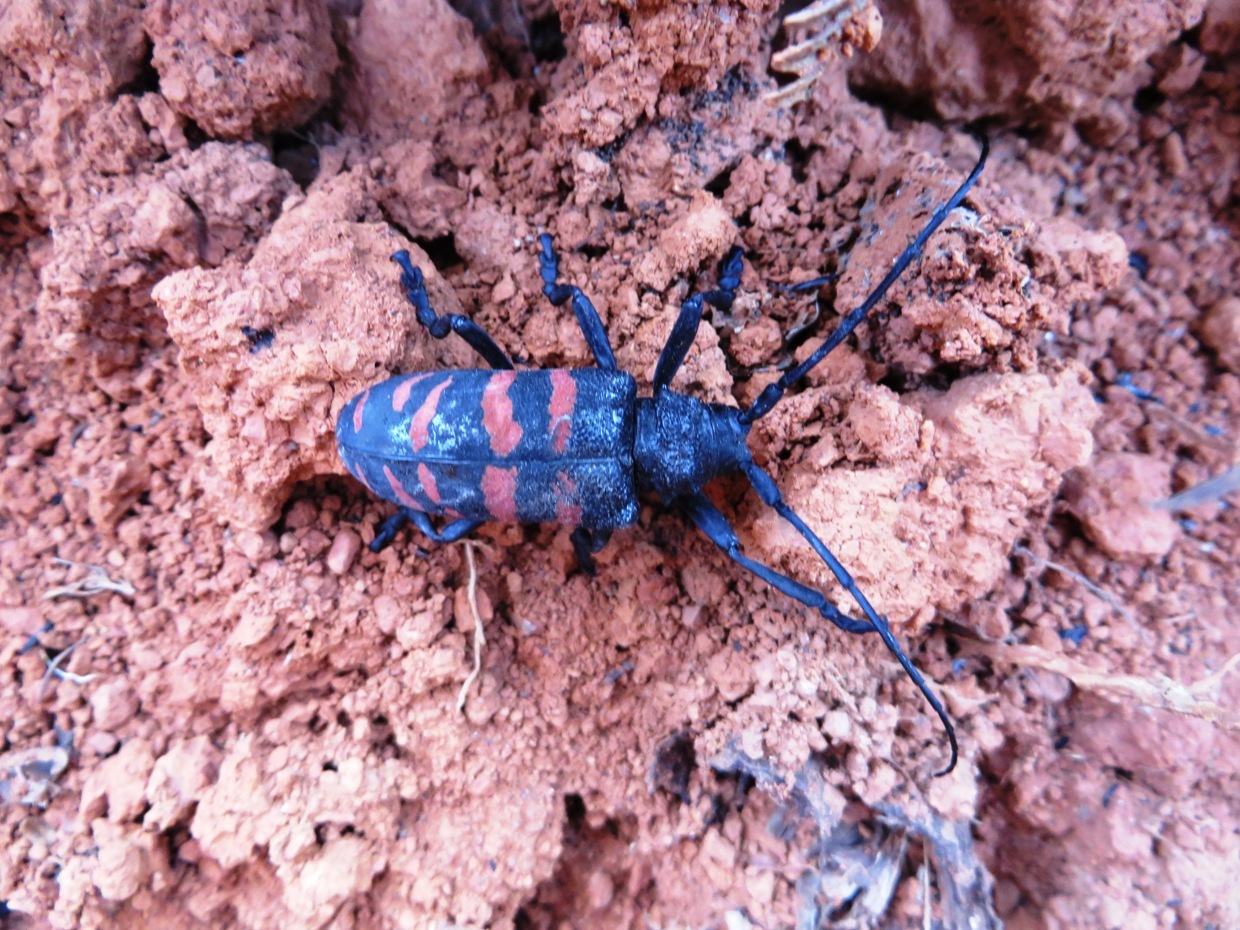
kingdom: Animalia
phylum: Arthropoda
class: Insecta
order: Coleoptera
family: Cerambycidae
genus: Ceroplesis
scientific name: Ceroplesis capensis
